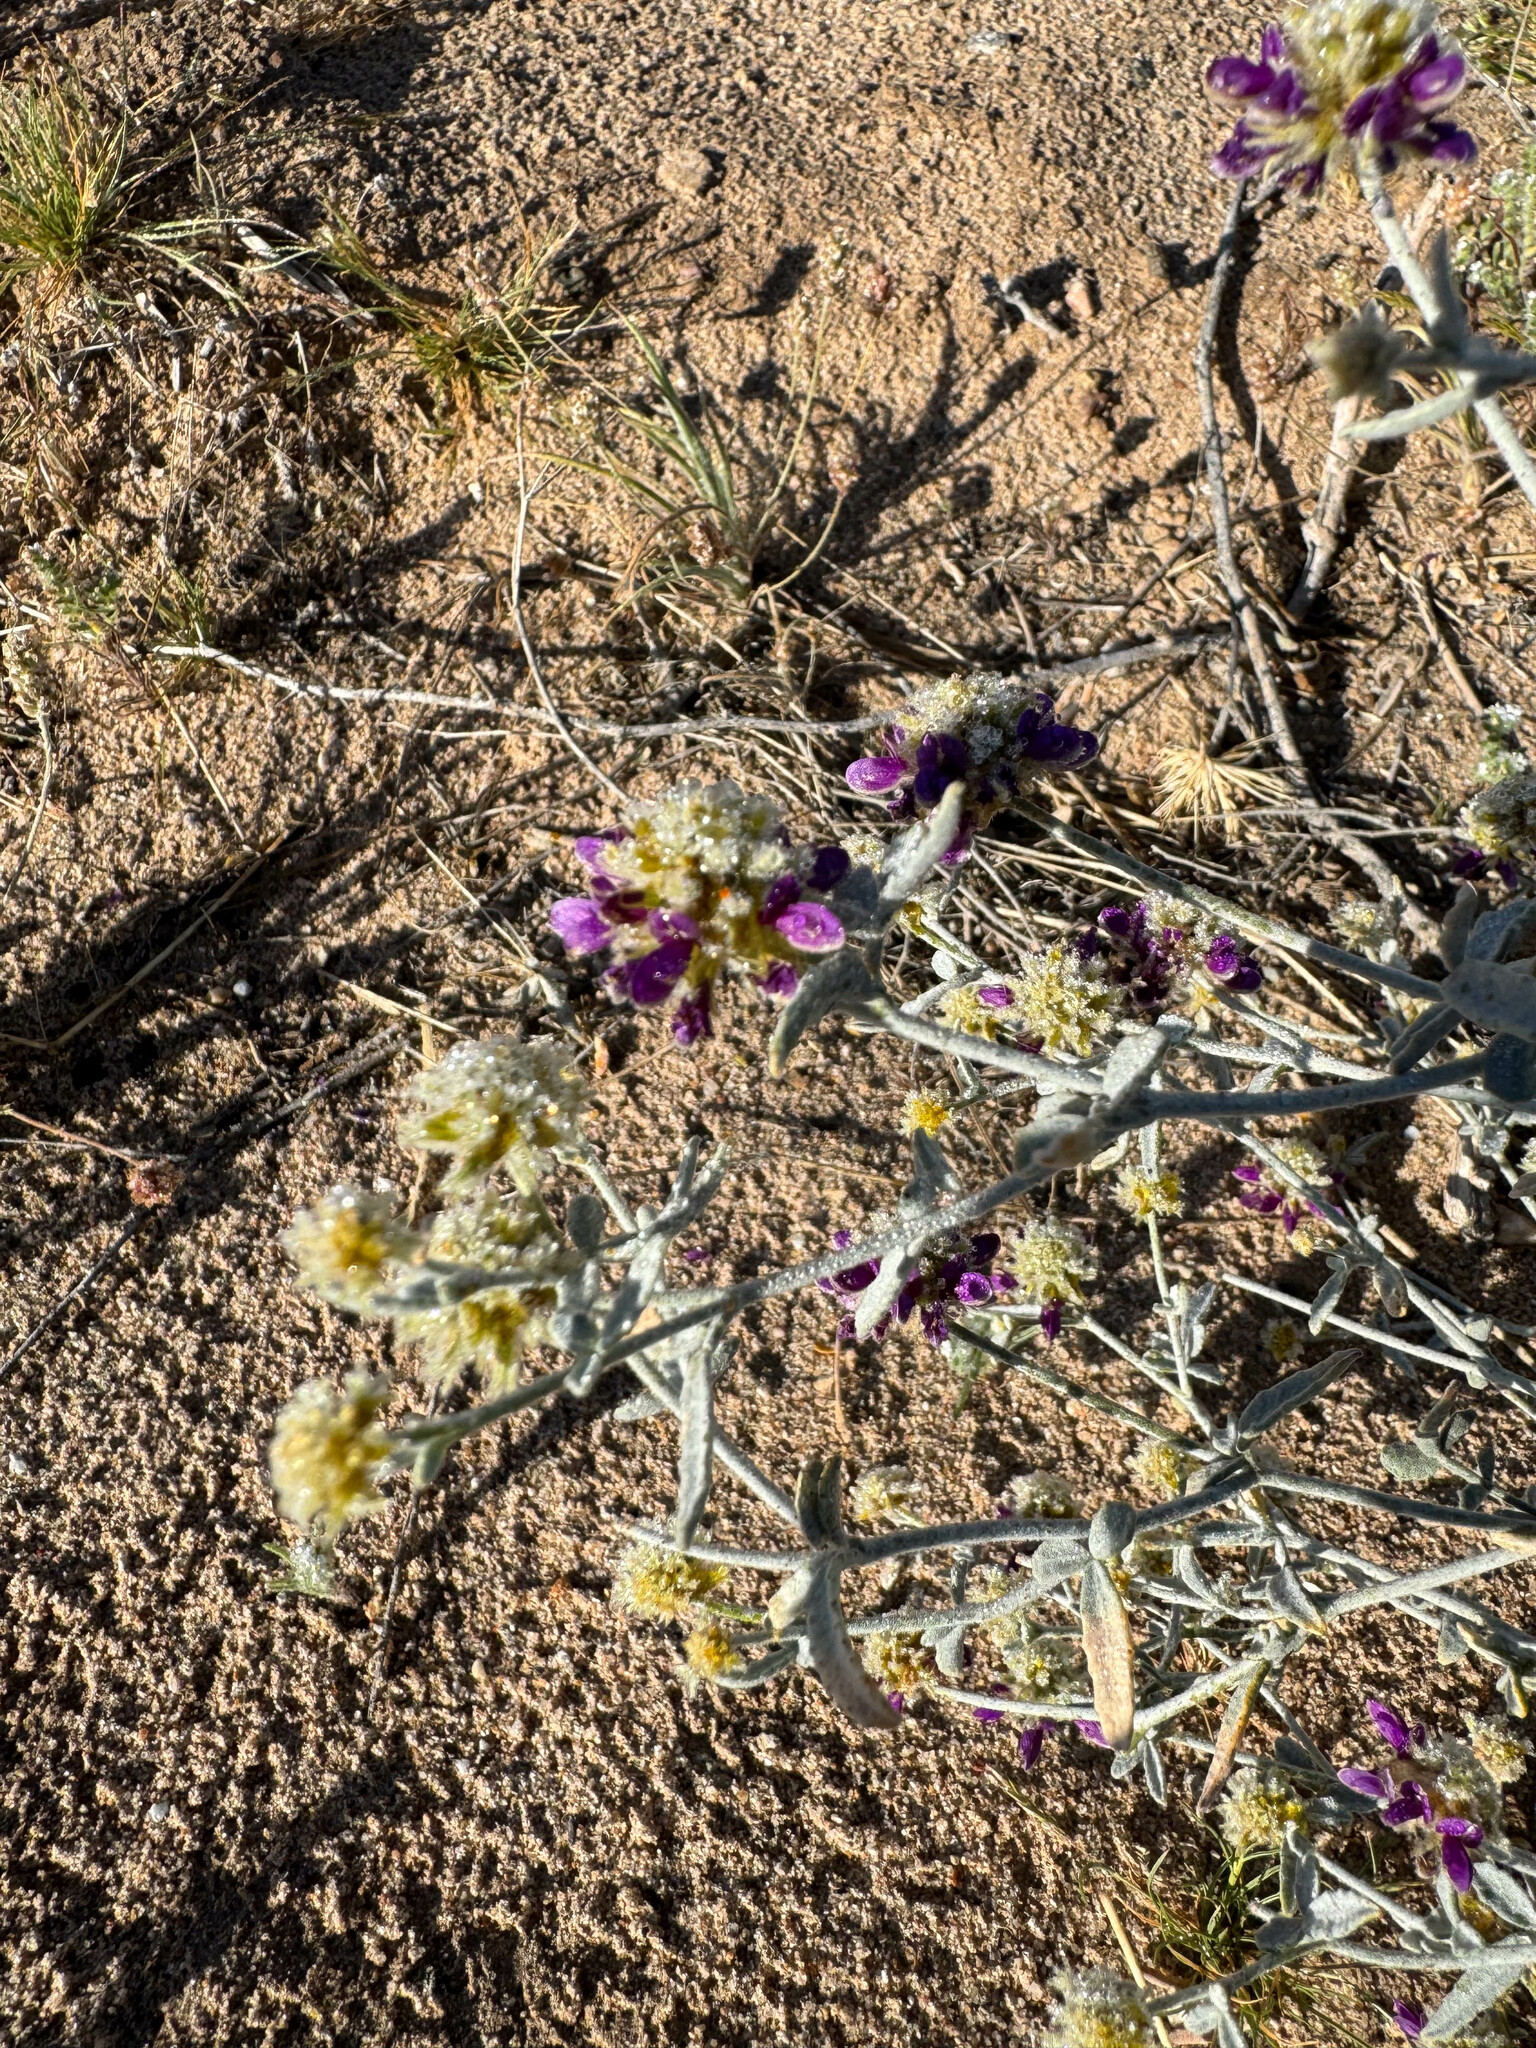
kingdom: Plantae
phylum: Tracheophyta
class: Magnoliopsida
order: Fabales
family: Fabaceae
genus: Psorothamnus
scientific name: Psorothamnus emoryi
